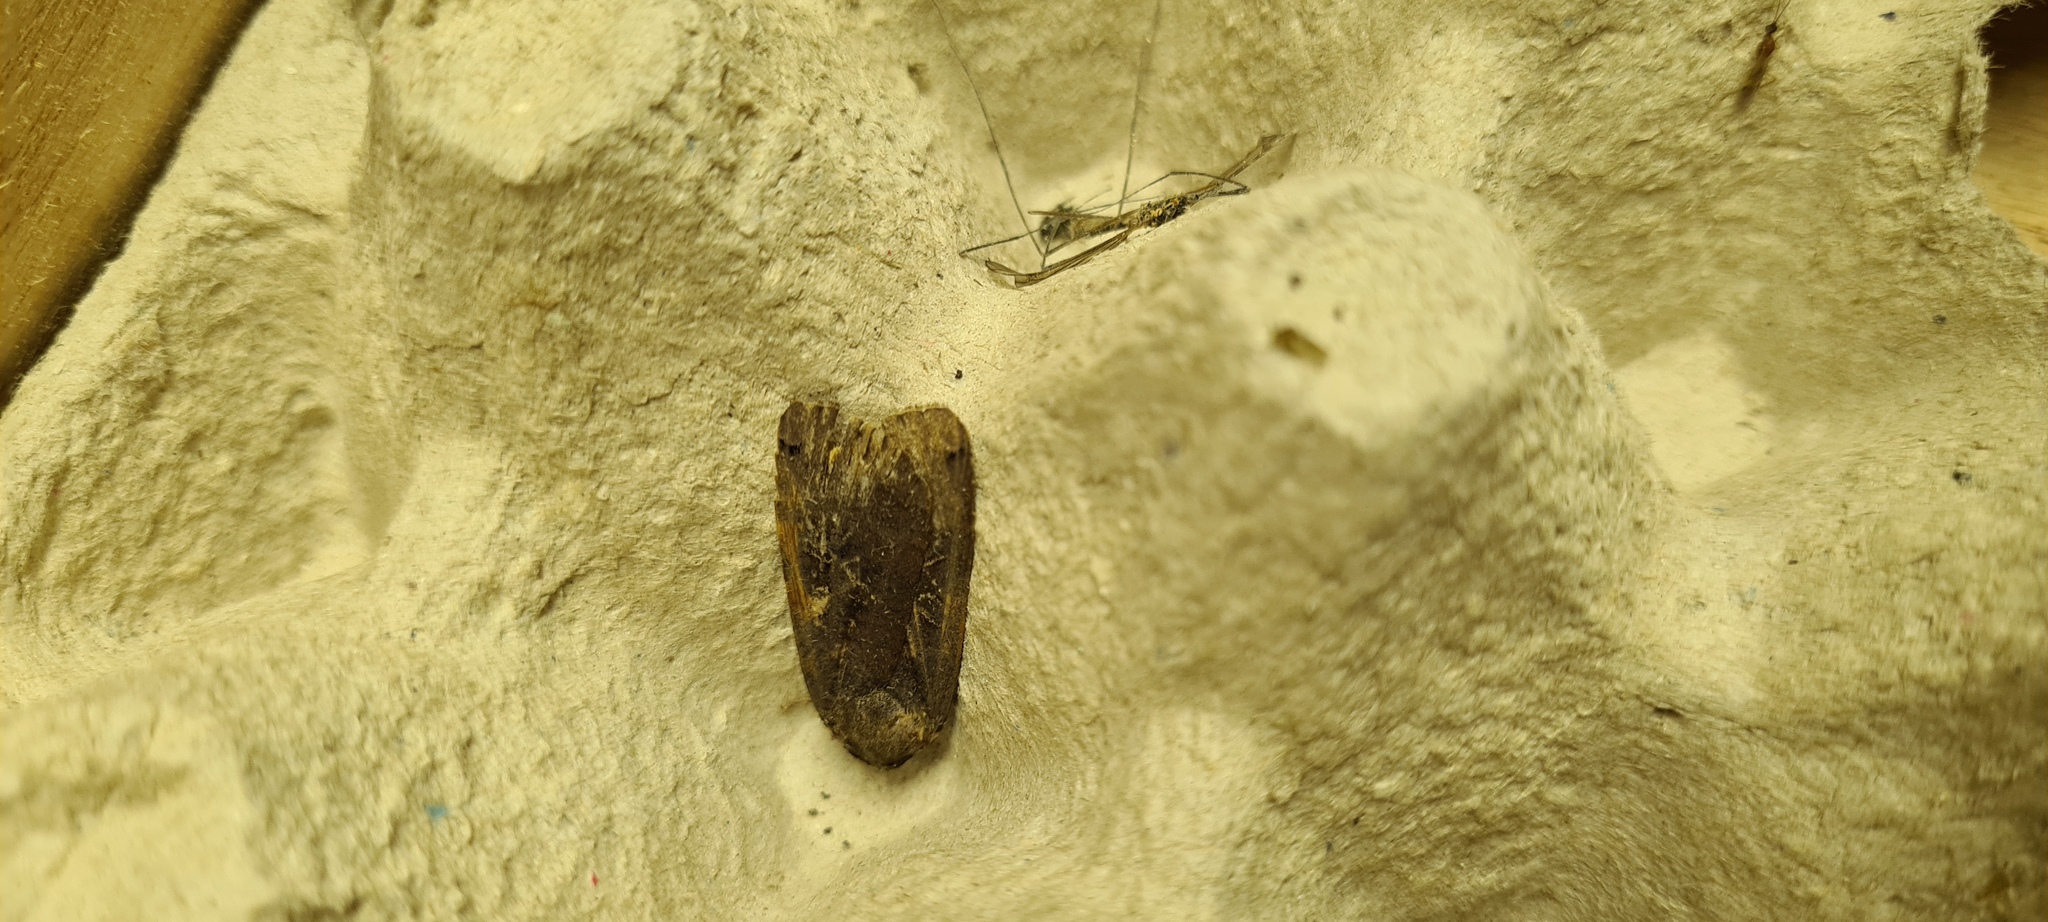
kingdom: Animalia
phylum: Arthropoda
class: Insecta
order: Lepidoptera
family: Noctuidae
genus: Noctua
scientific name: Noctua pronuba
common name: Large yellow underwing
